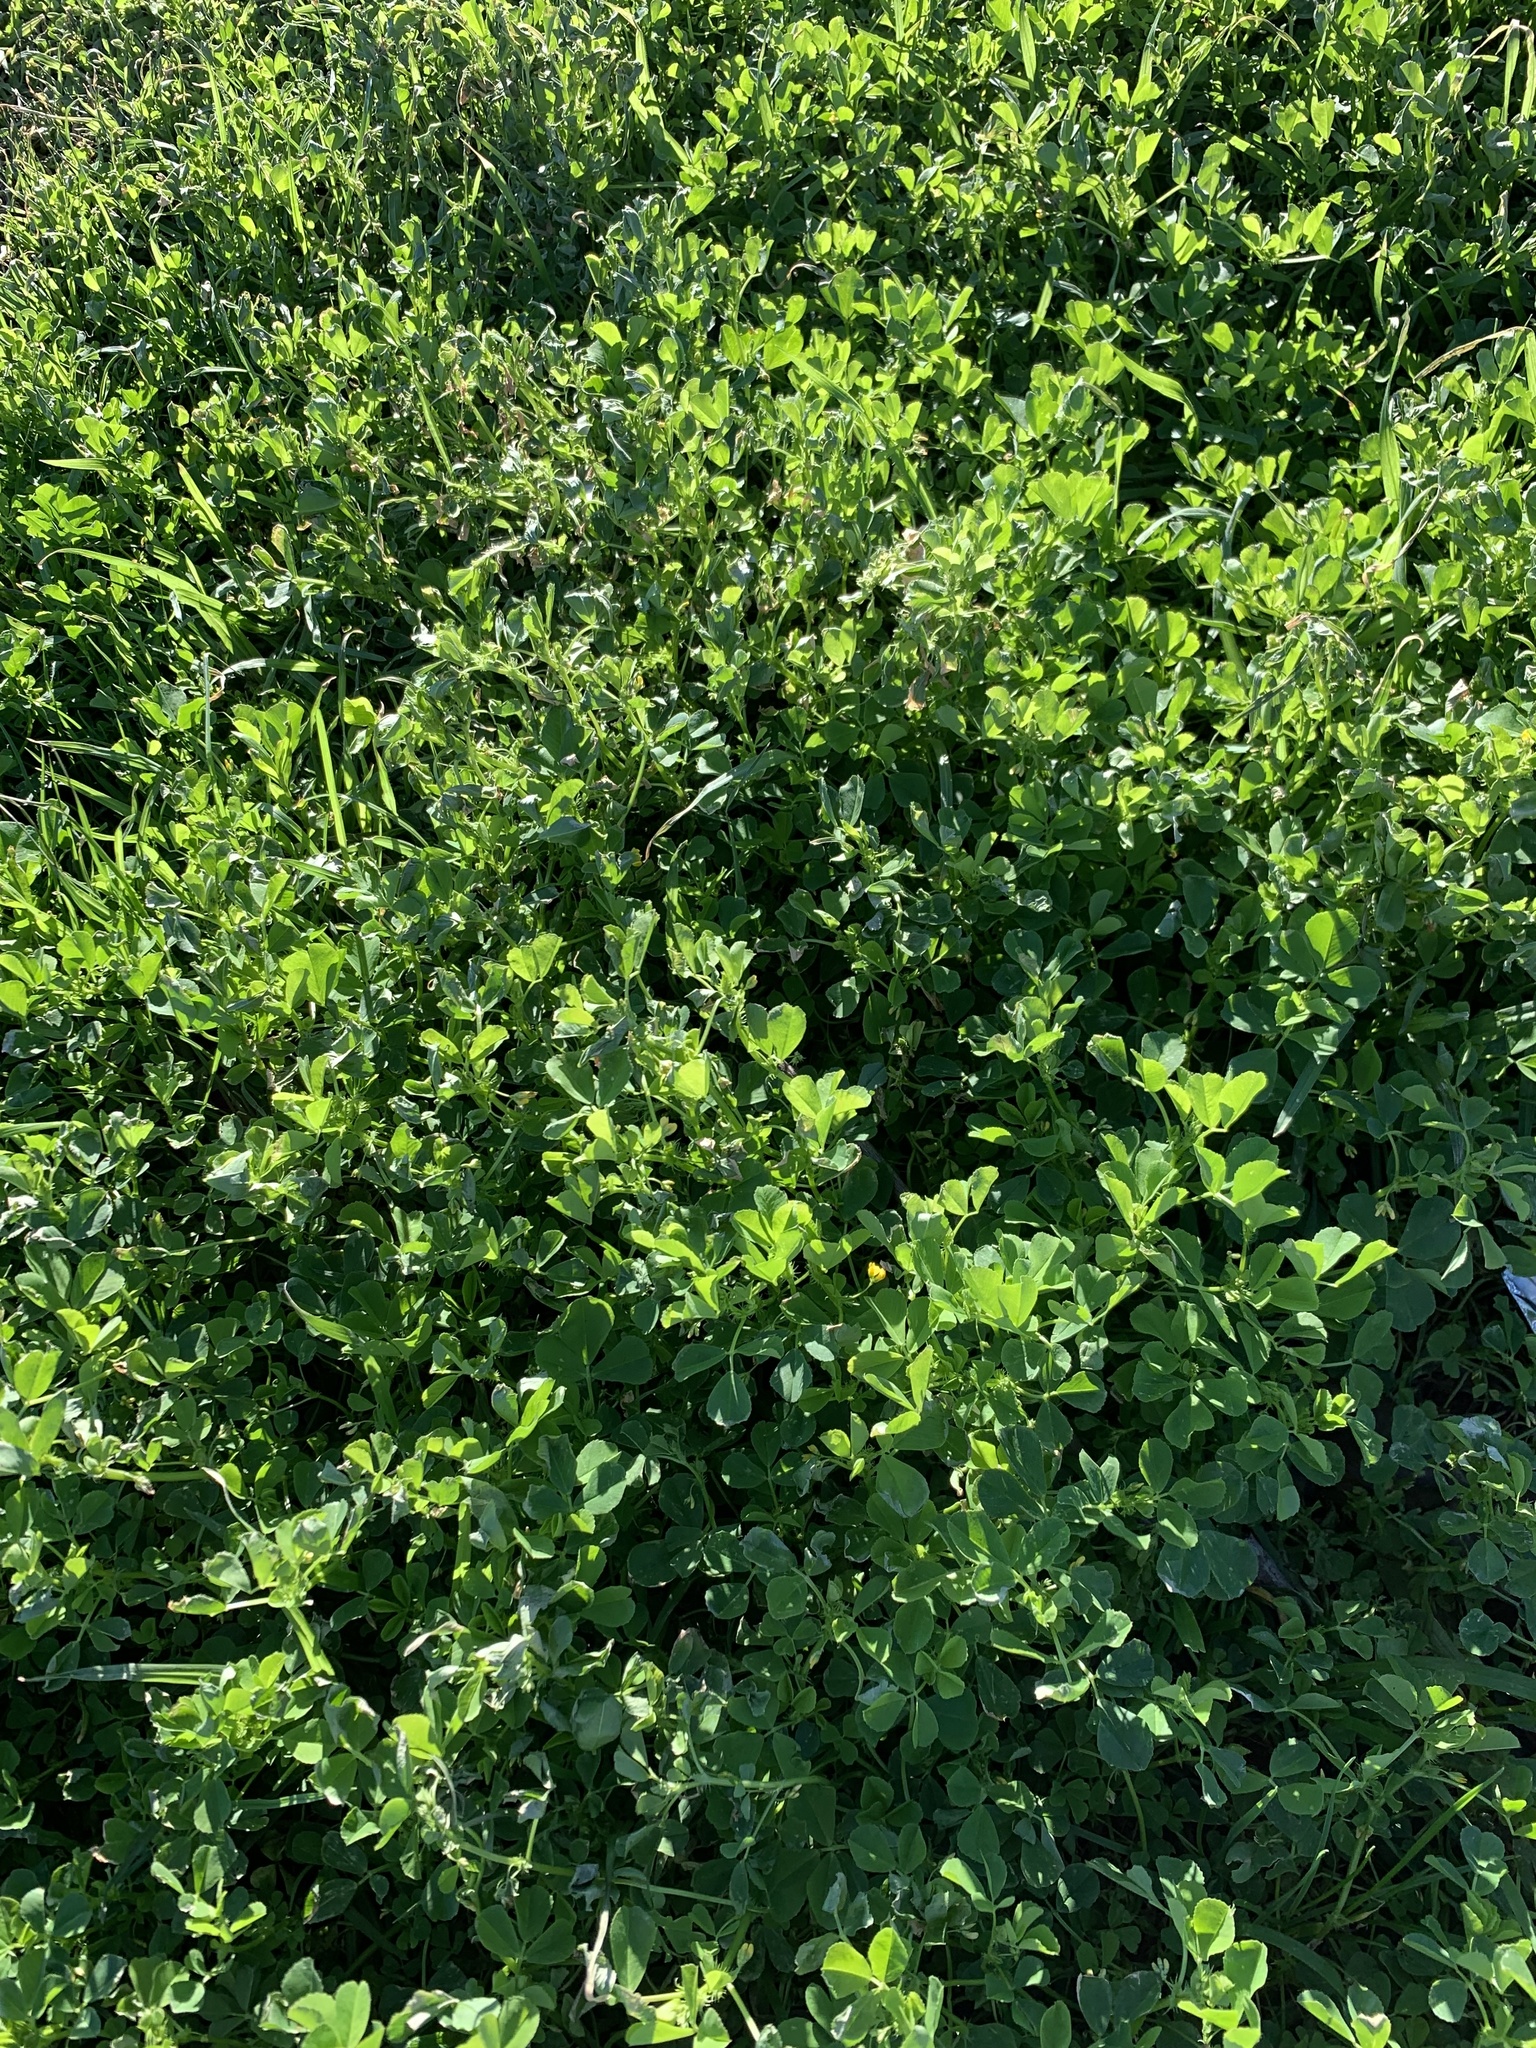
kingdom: Plantae
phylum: Tracheophyta
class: Magnoliopsida
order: Fabales
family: Fabaceae
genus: Medicago
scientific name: Medicago polymorpha
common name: Burclover
